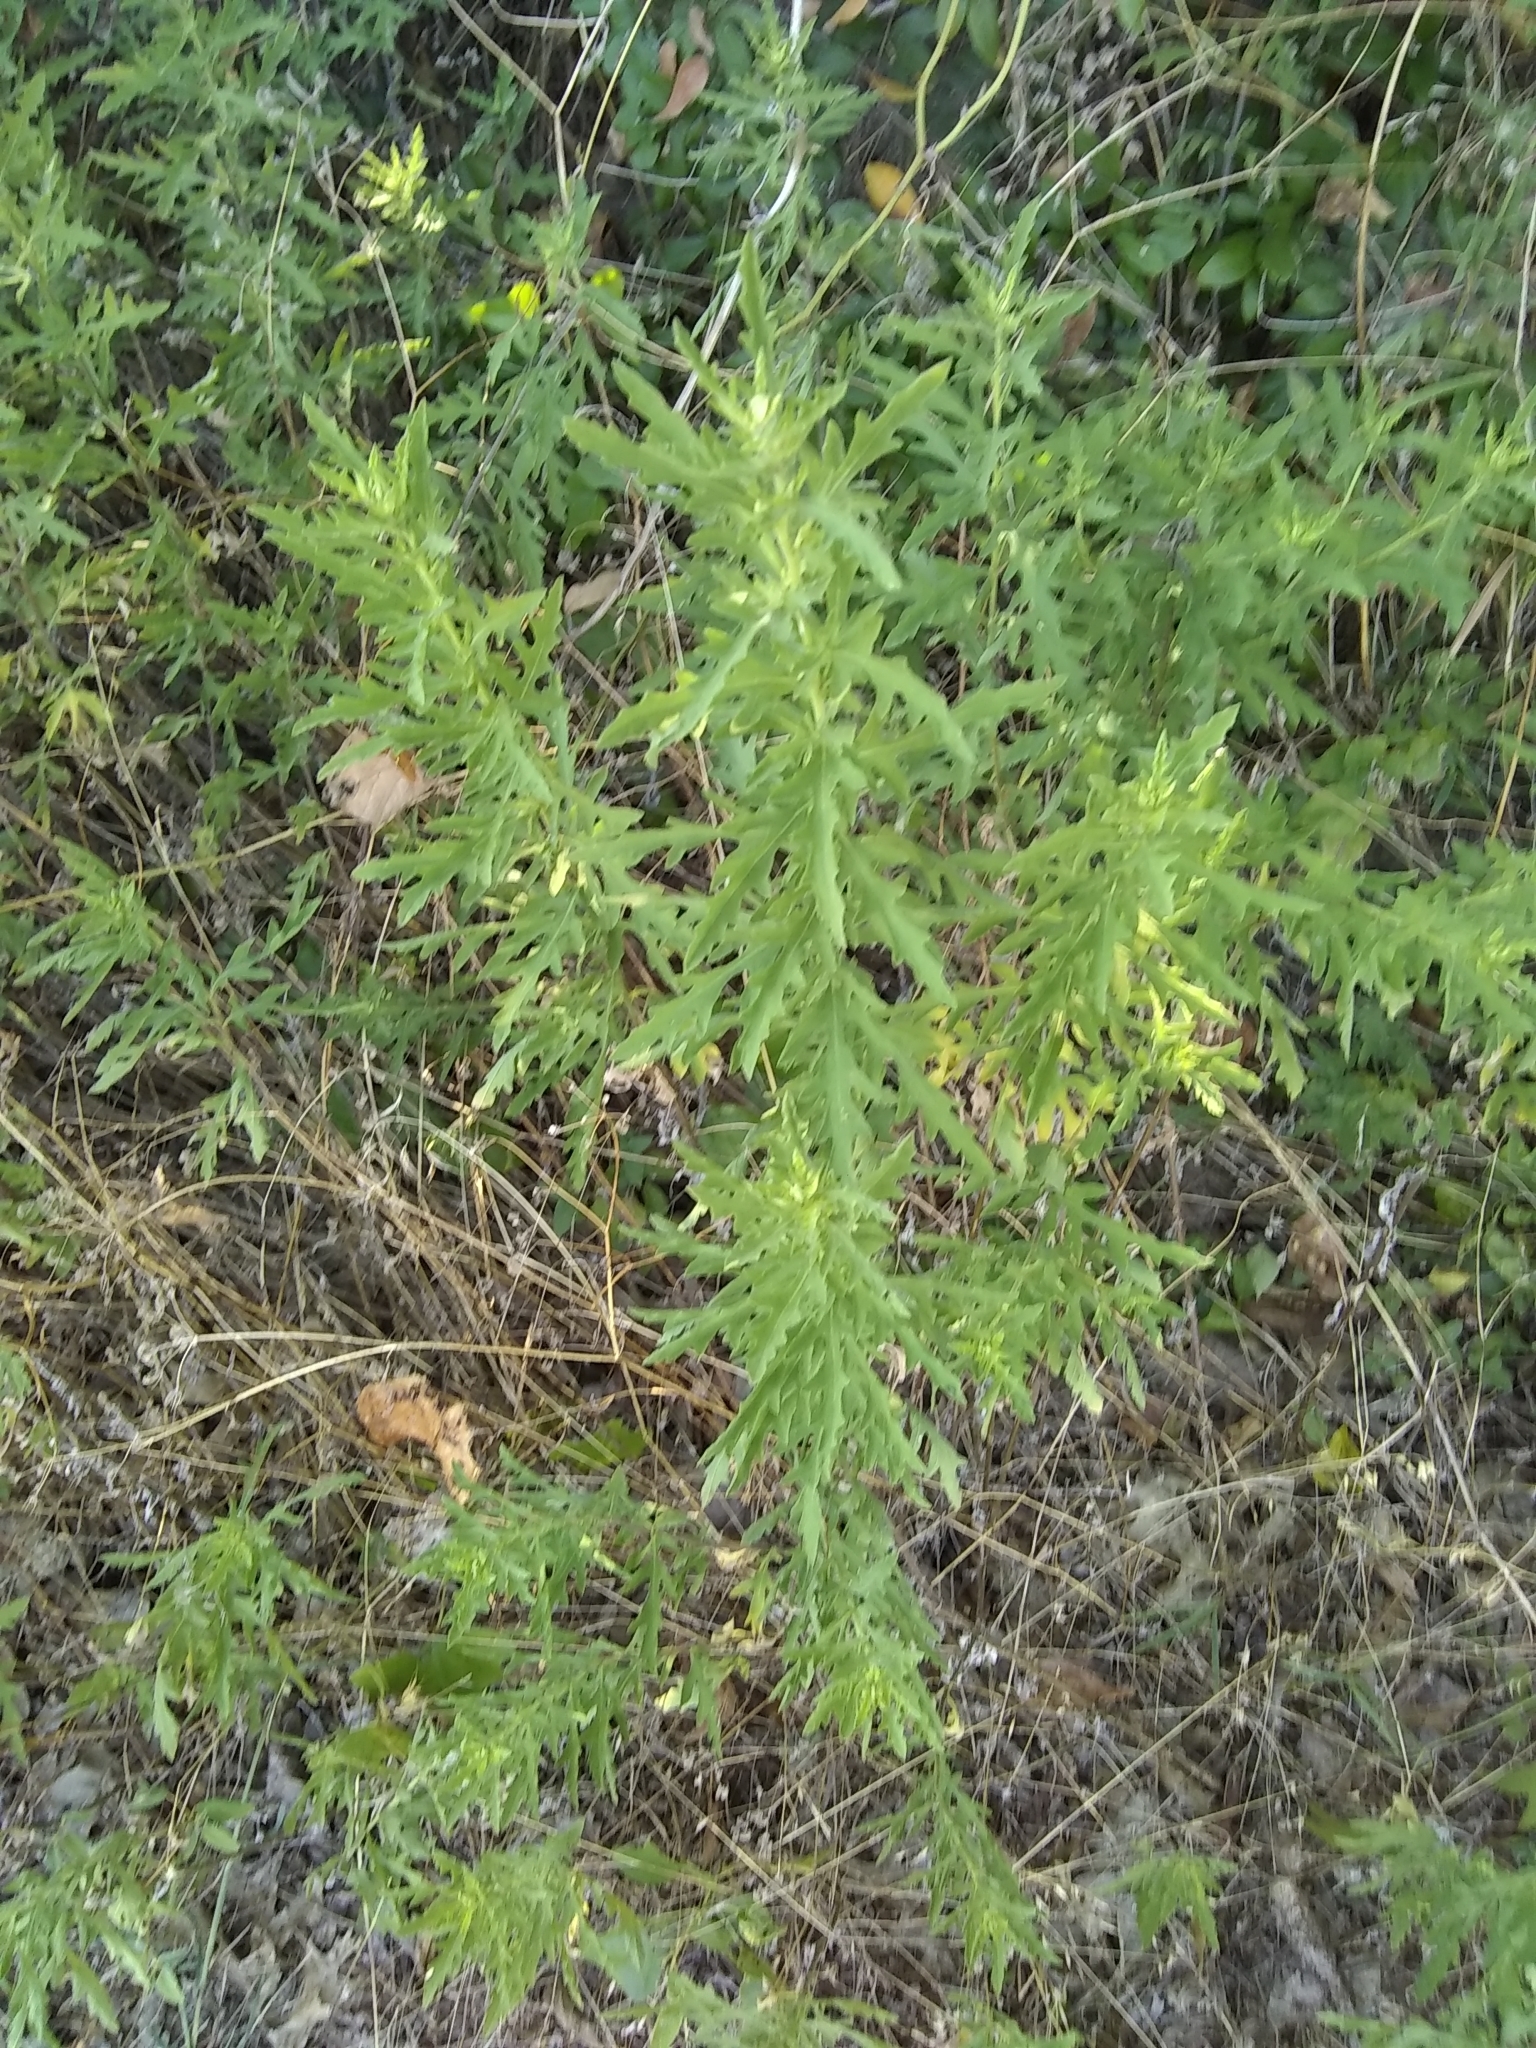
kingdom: Plantae
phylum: Tracheophyta
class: Magnoliopsida
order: Asterales
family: Asteraceae
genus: Ambrosia
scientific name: Ambrosia psilostachya
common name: Perennial ragweed
